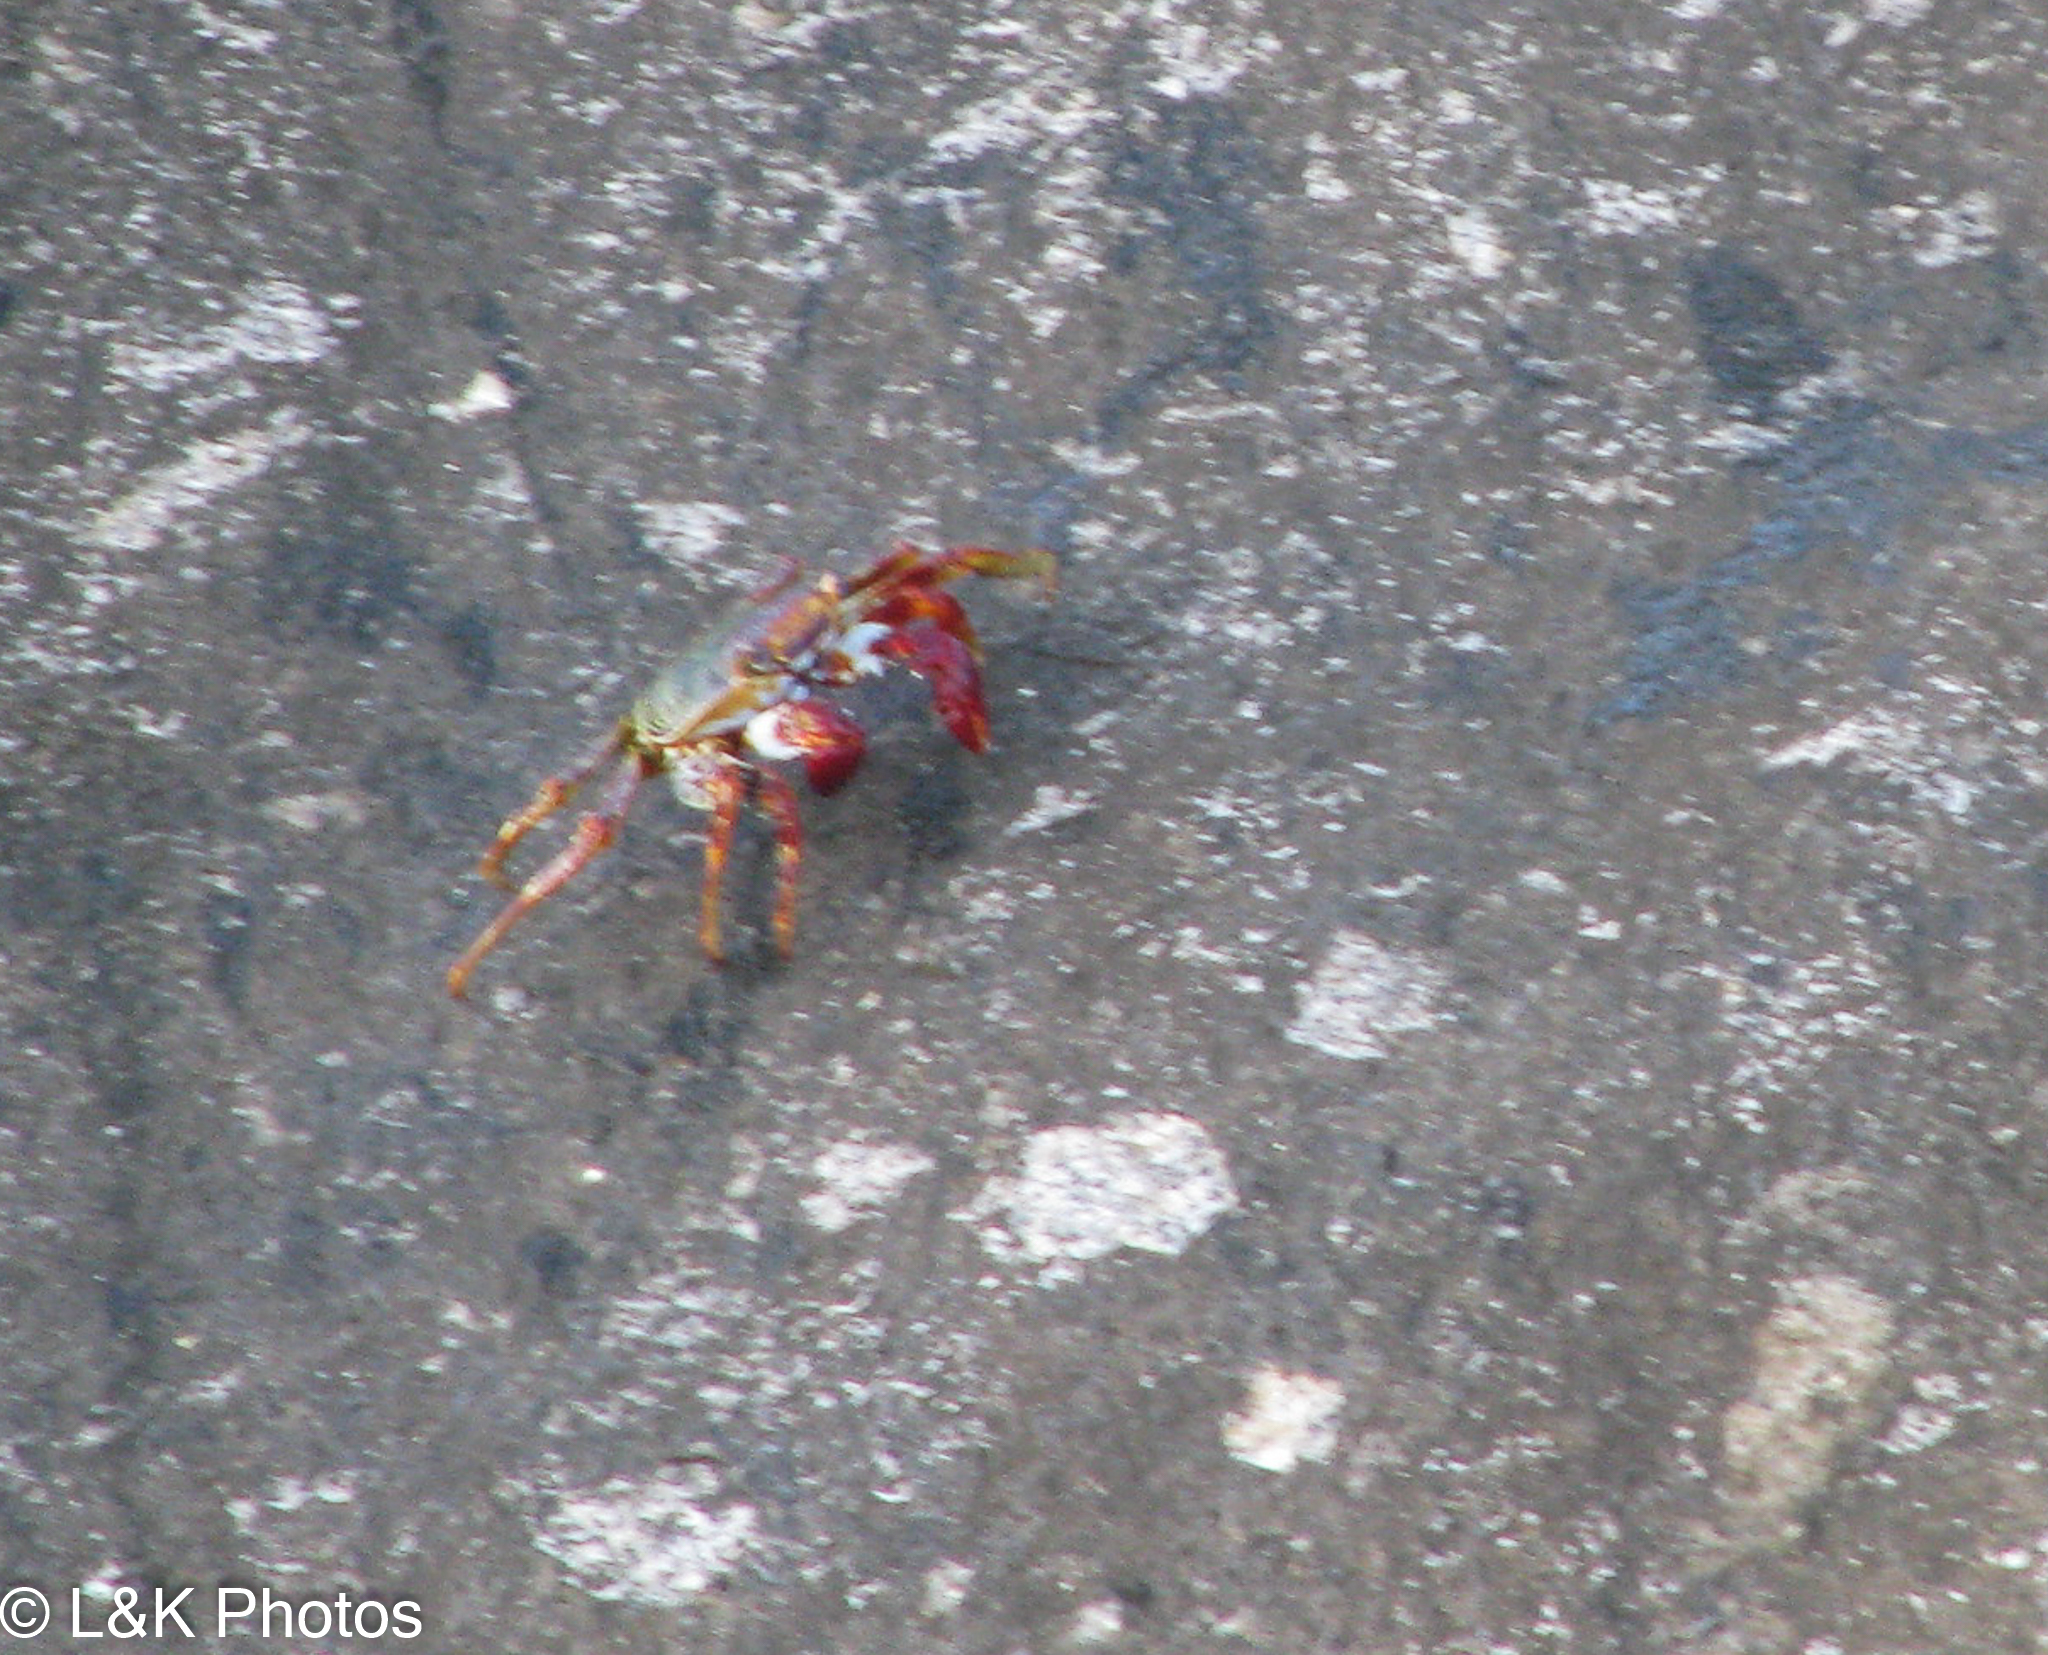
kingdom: Animalia
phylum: Arthropoda
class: Malacostraca
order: Decapoda
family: Grapsidae
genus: Grapsus
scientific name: Grapsus grapsus
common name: Sally lightfoot
